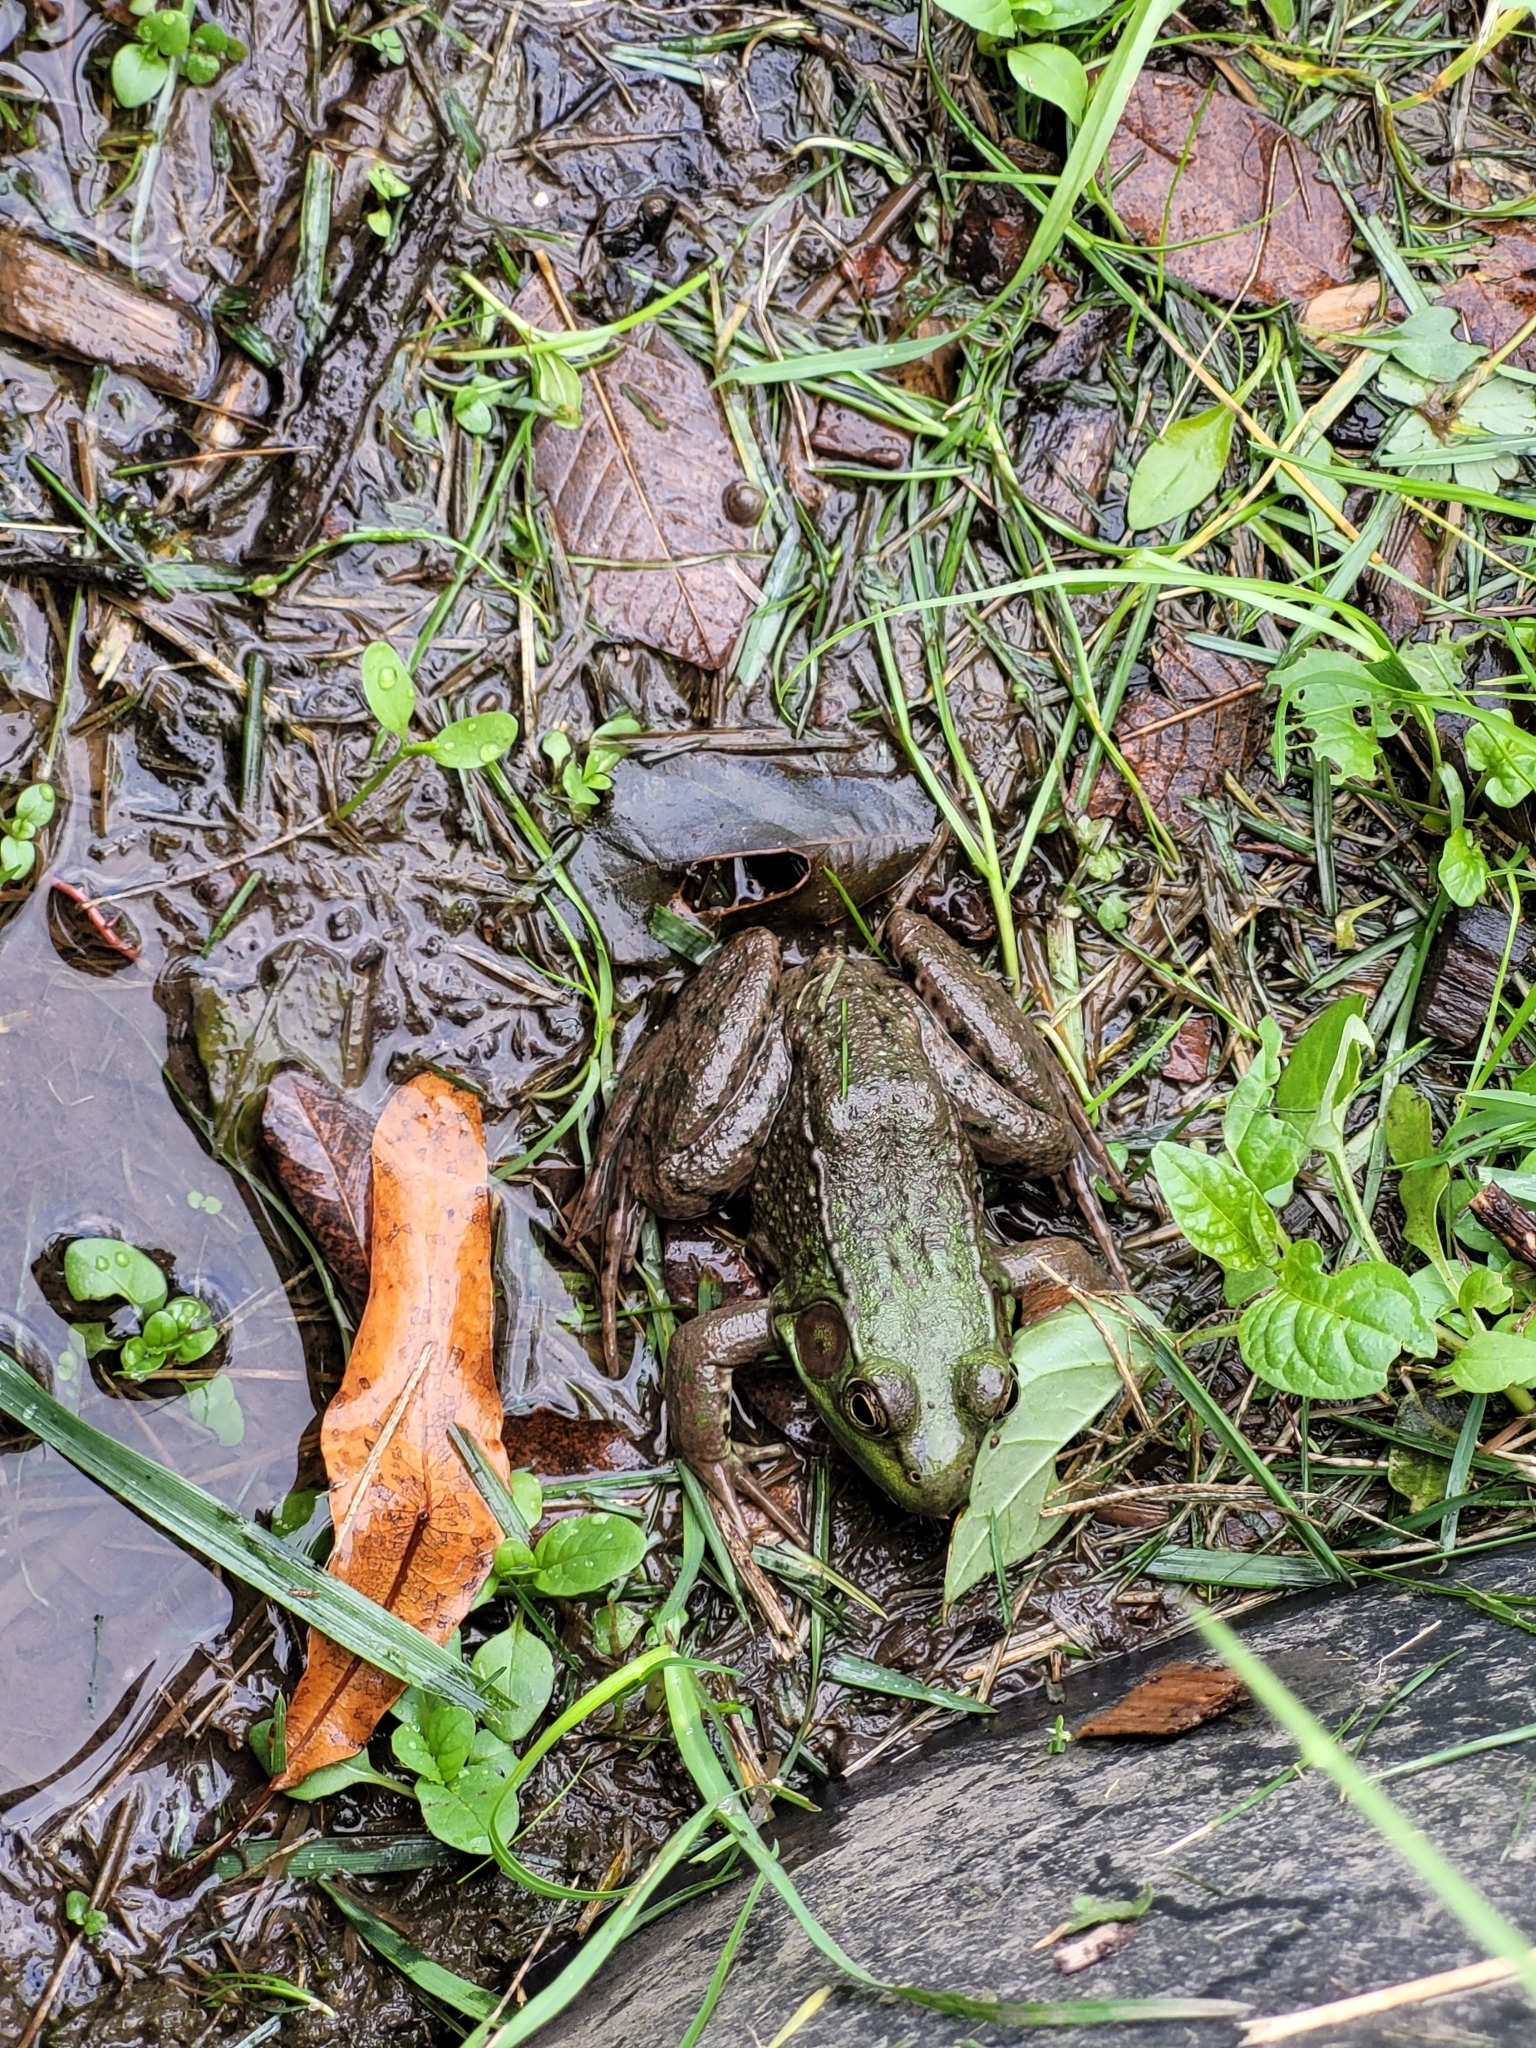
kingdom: Animalia
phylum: Chordata
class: Amphibia
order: Anura
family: Ranidae
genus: Lithobates
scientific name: Lithobates clamitans
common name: Green frog
